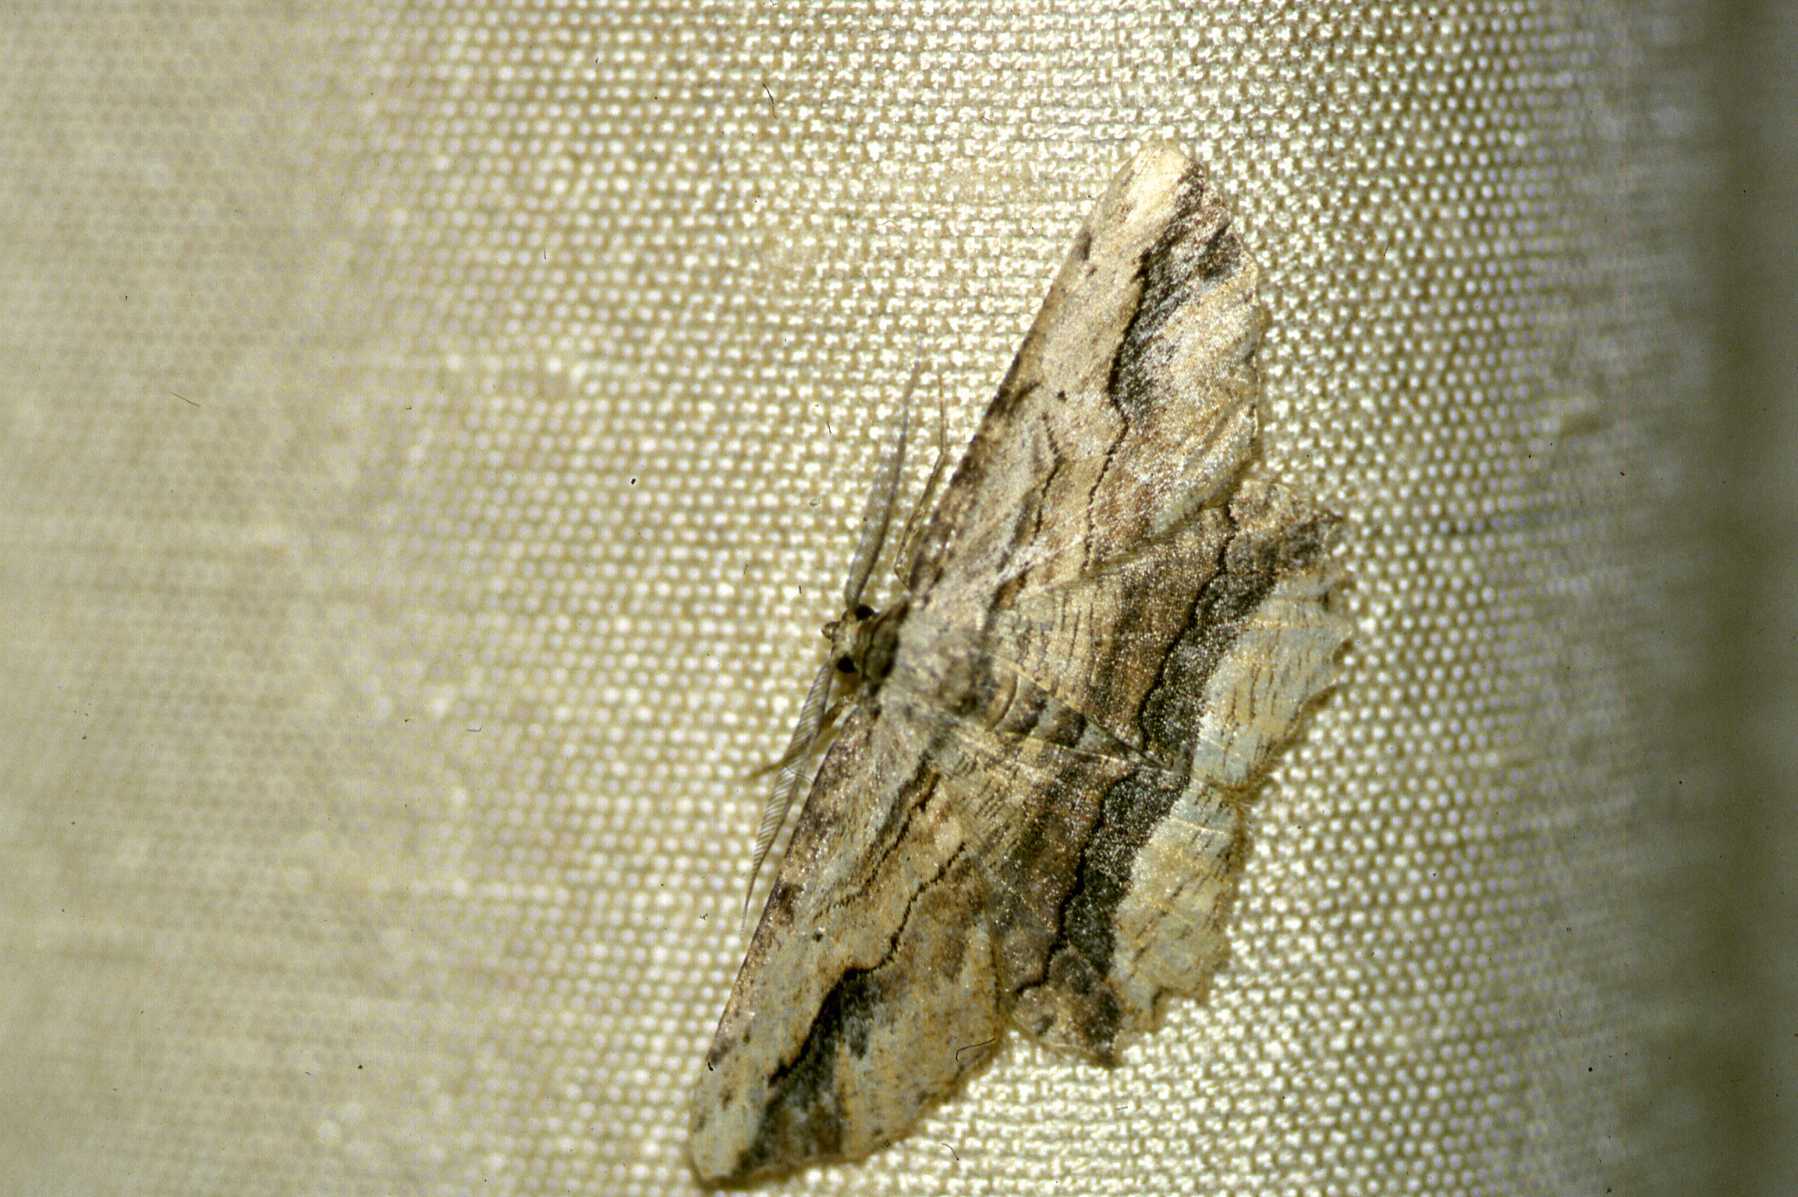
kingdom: Animalia
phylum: Arthropoda
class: Insecta
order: Lepidoptera
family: Geometridae
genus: Menophra
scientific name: Menophra abruptaria
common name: Waved umber
